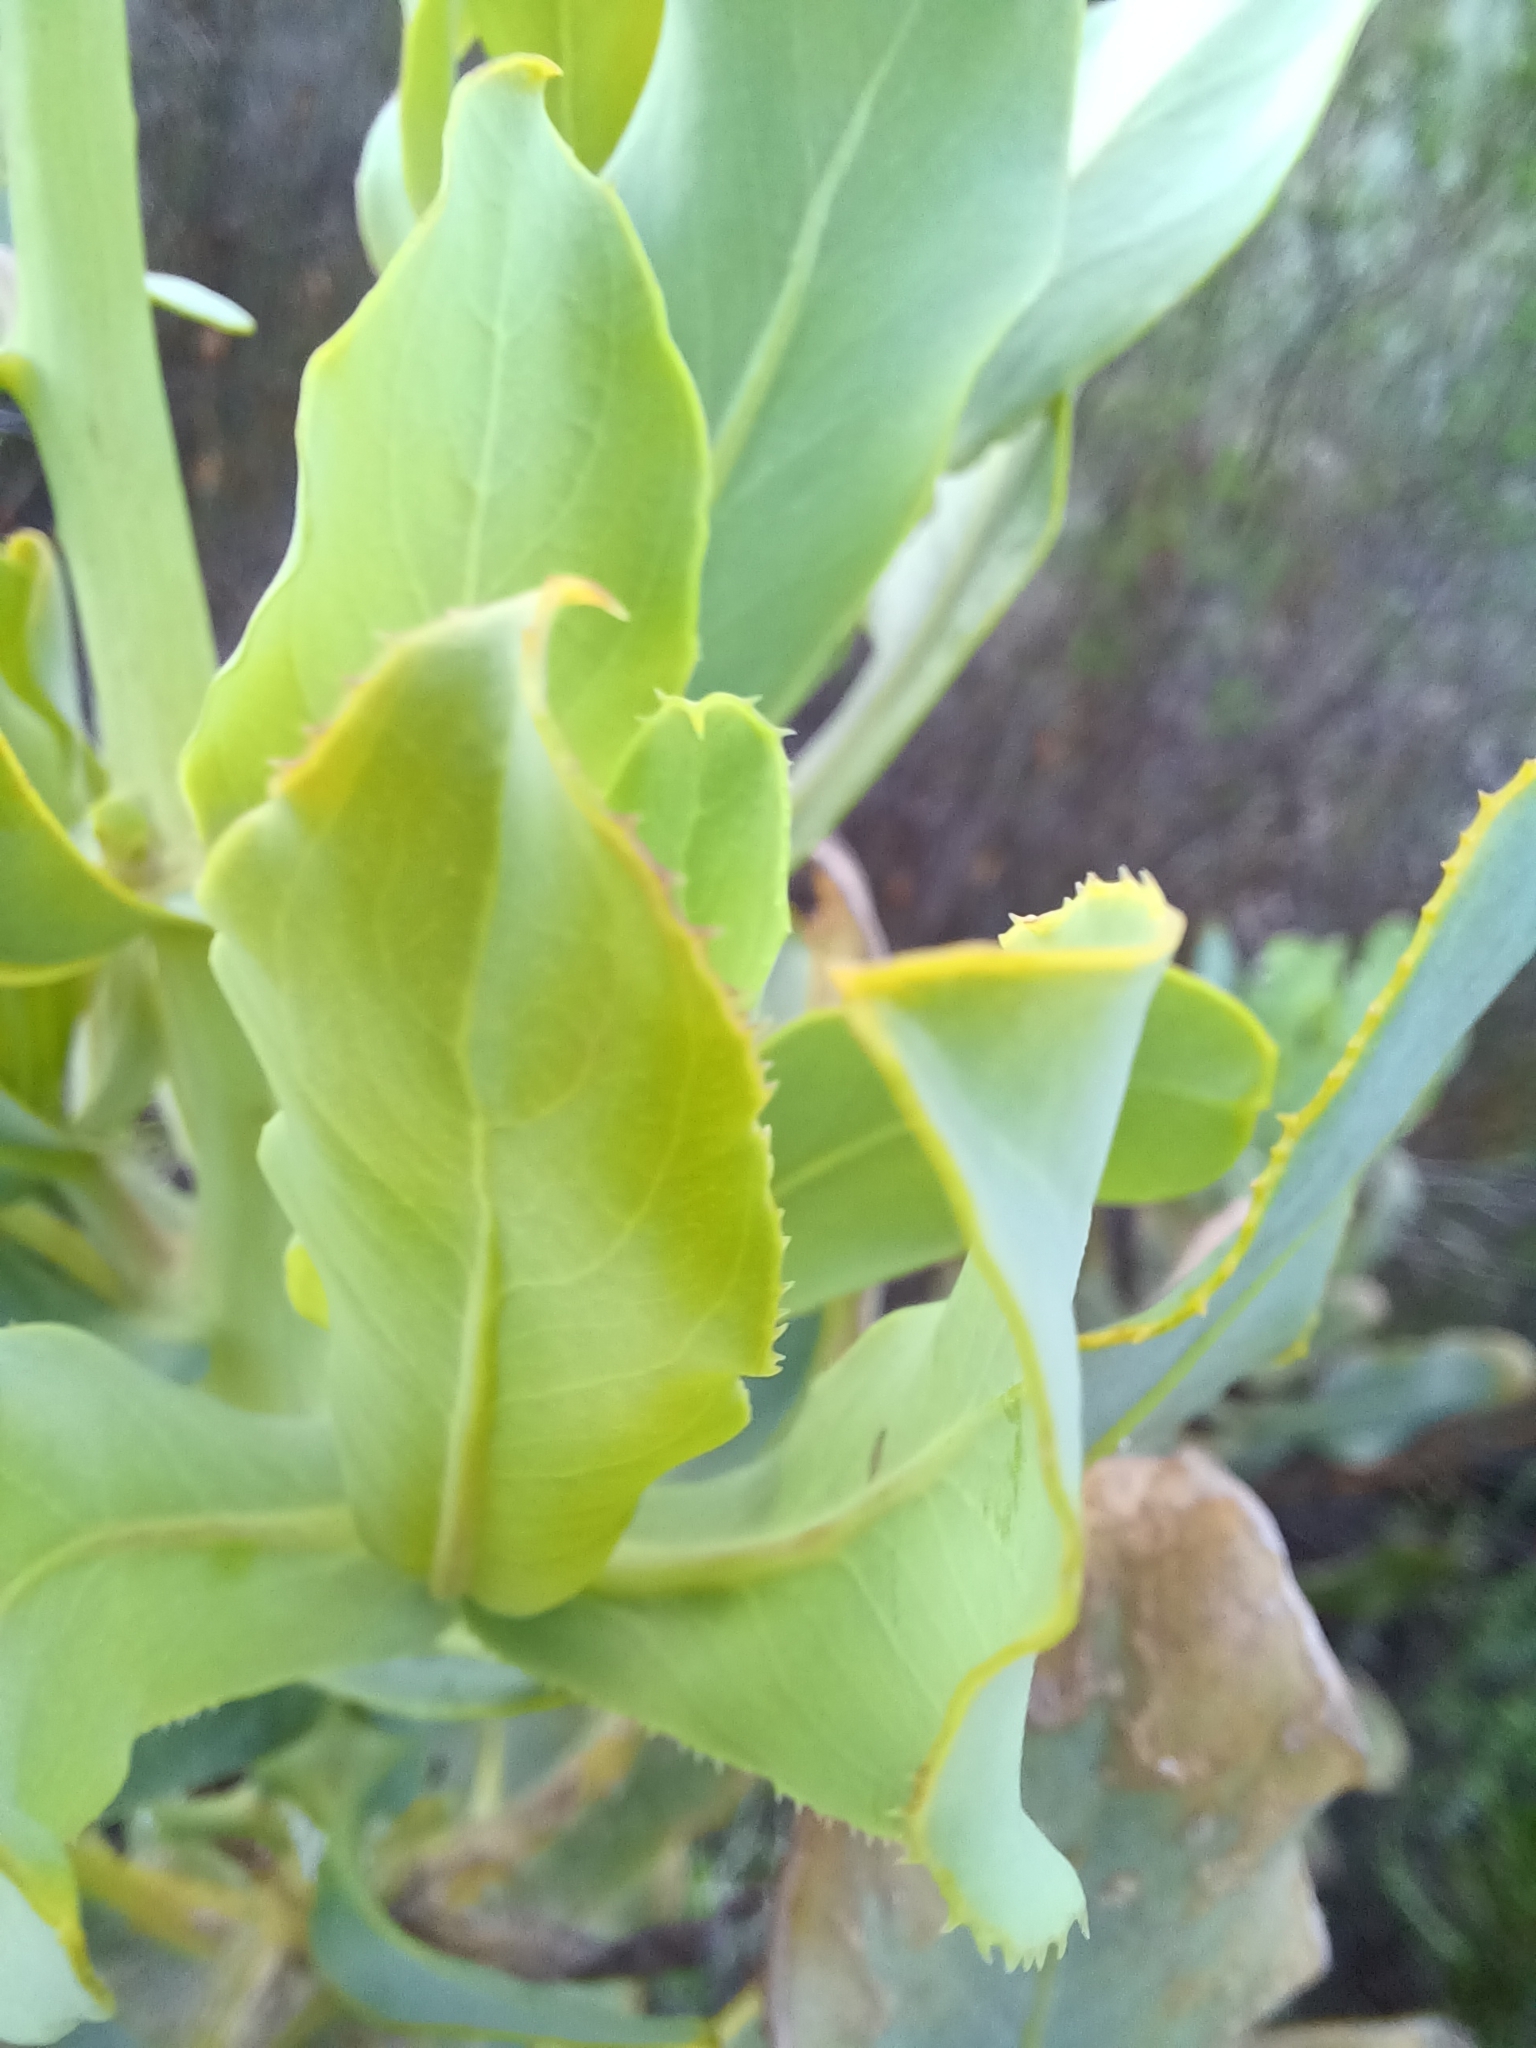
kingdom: Plantae
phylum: Tracheophyta
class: Magnoliopsida
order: Asterales
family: Asteraceae
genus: Othonna
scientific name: Othonna parviflora
